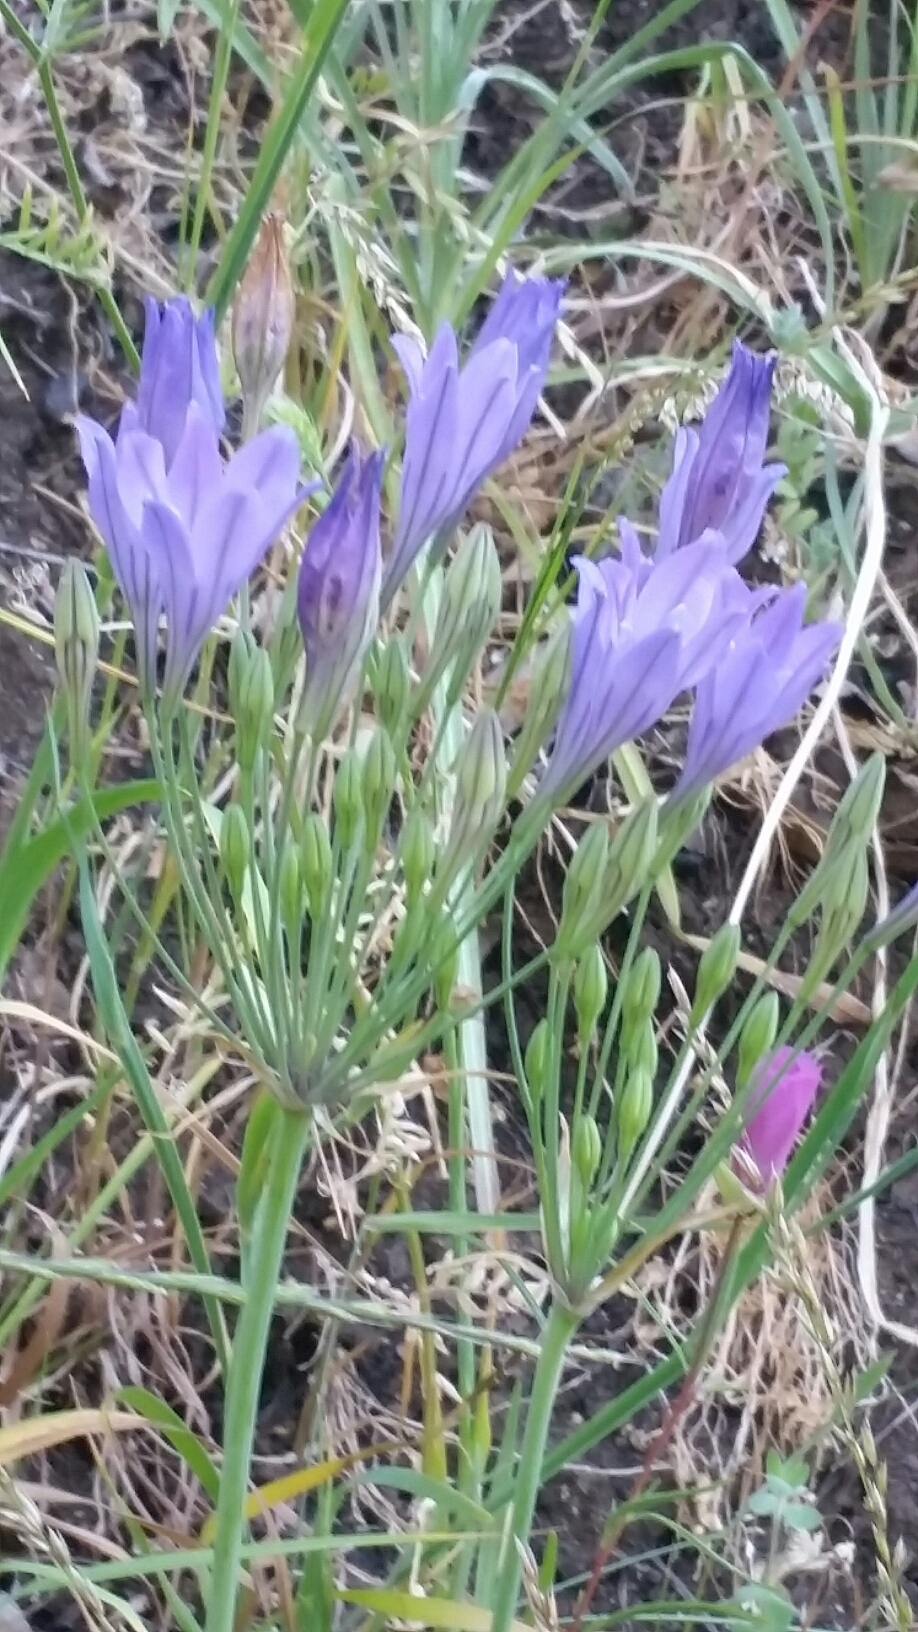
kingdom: Plantae
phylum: Tracheophyta
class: Liliopsida
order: Asparagales
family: Asparagaceae
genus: Triteleia
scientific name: Triteleia laxa
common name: Triplet-lily
